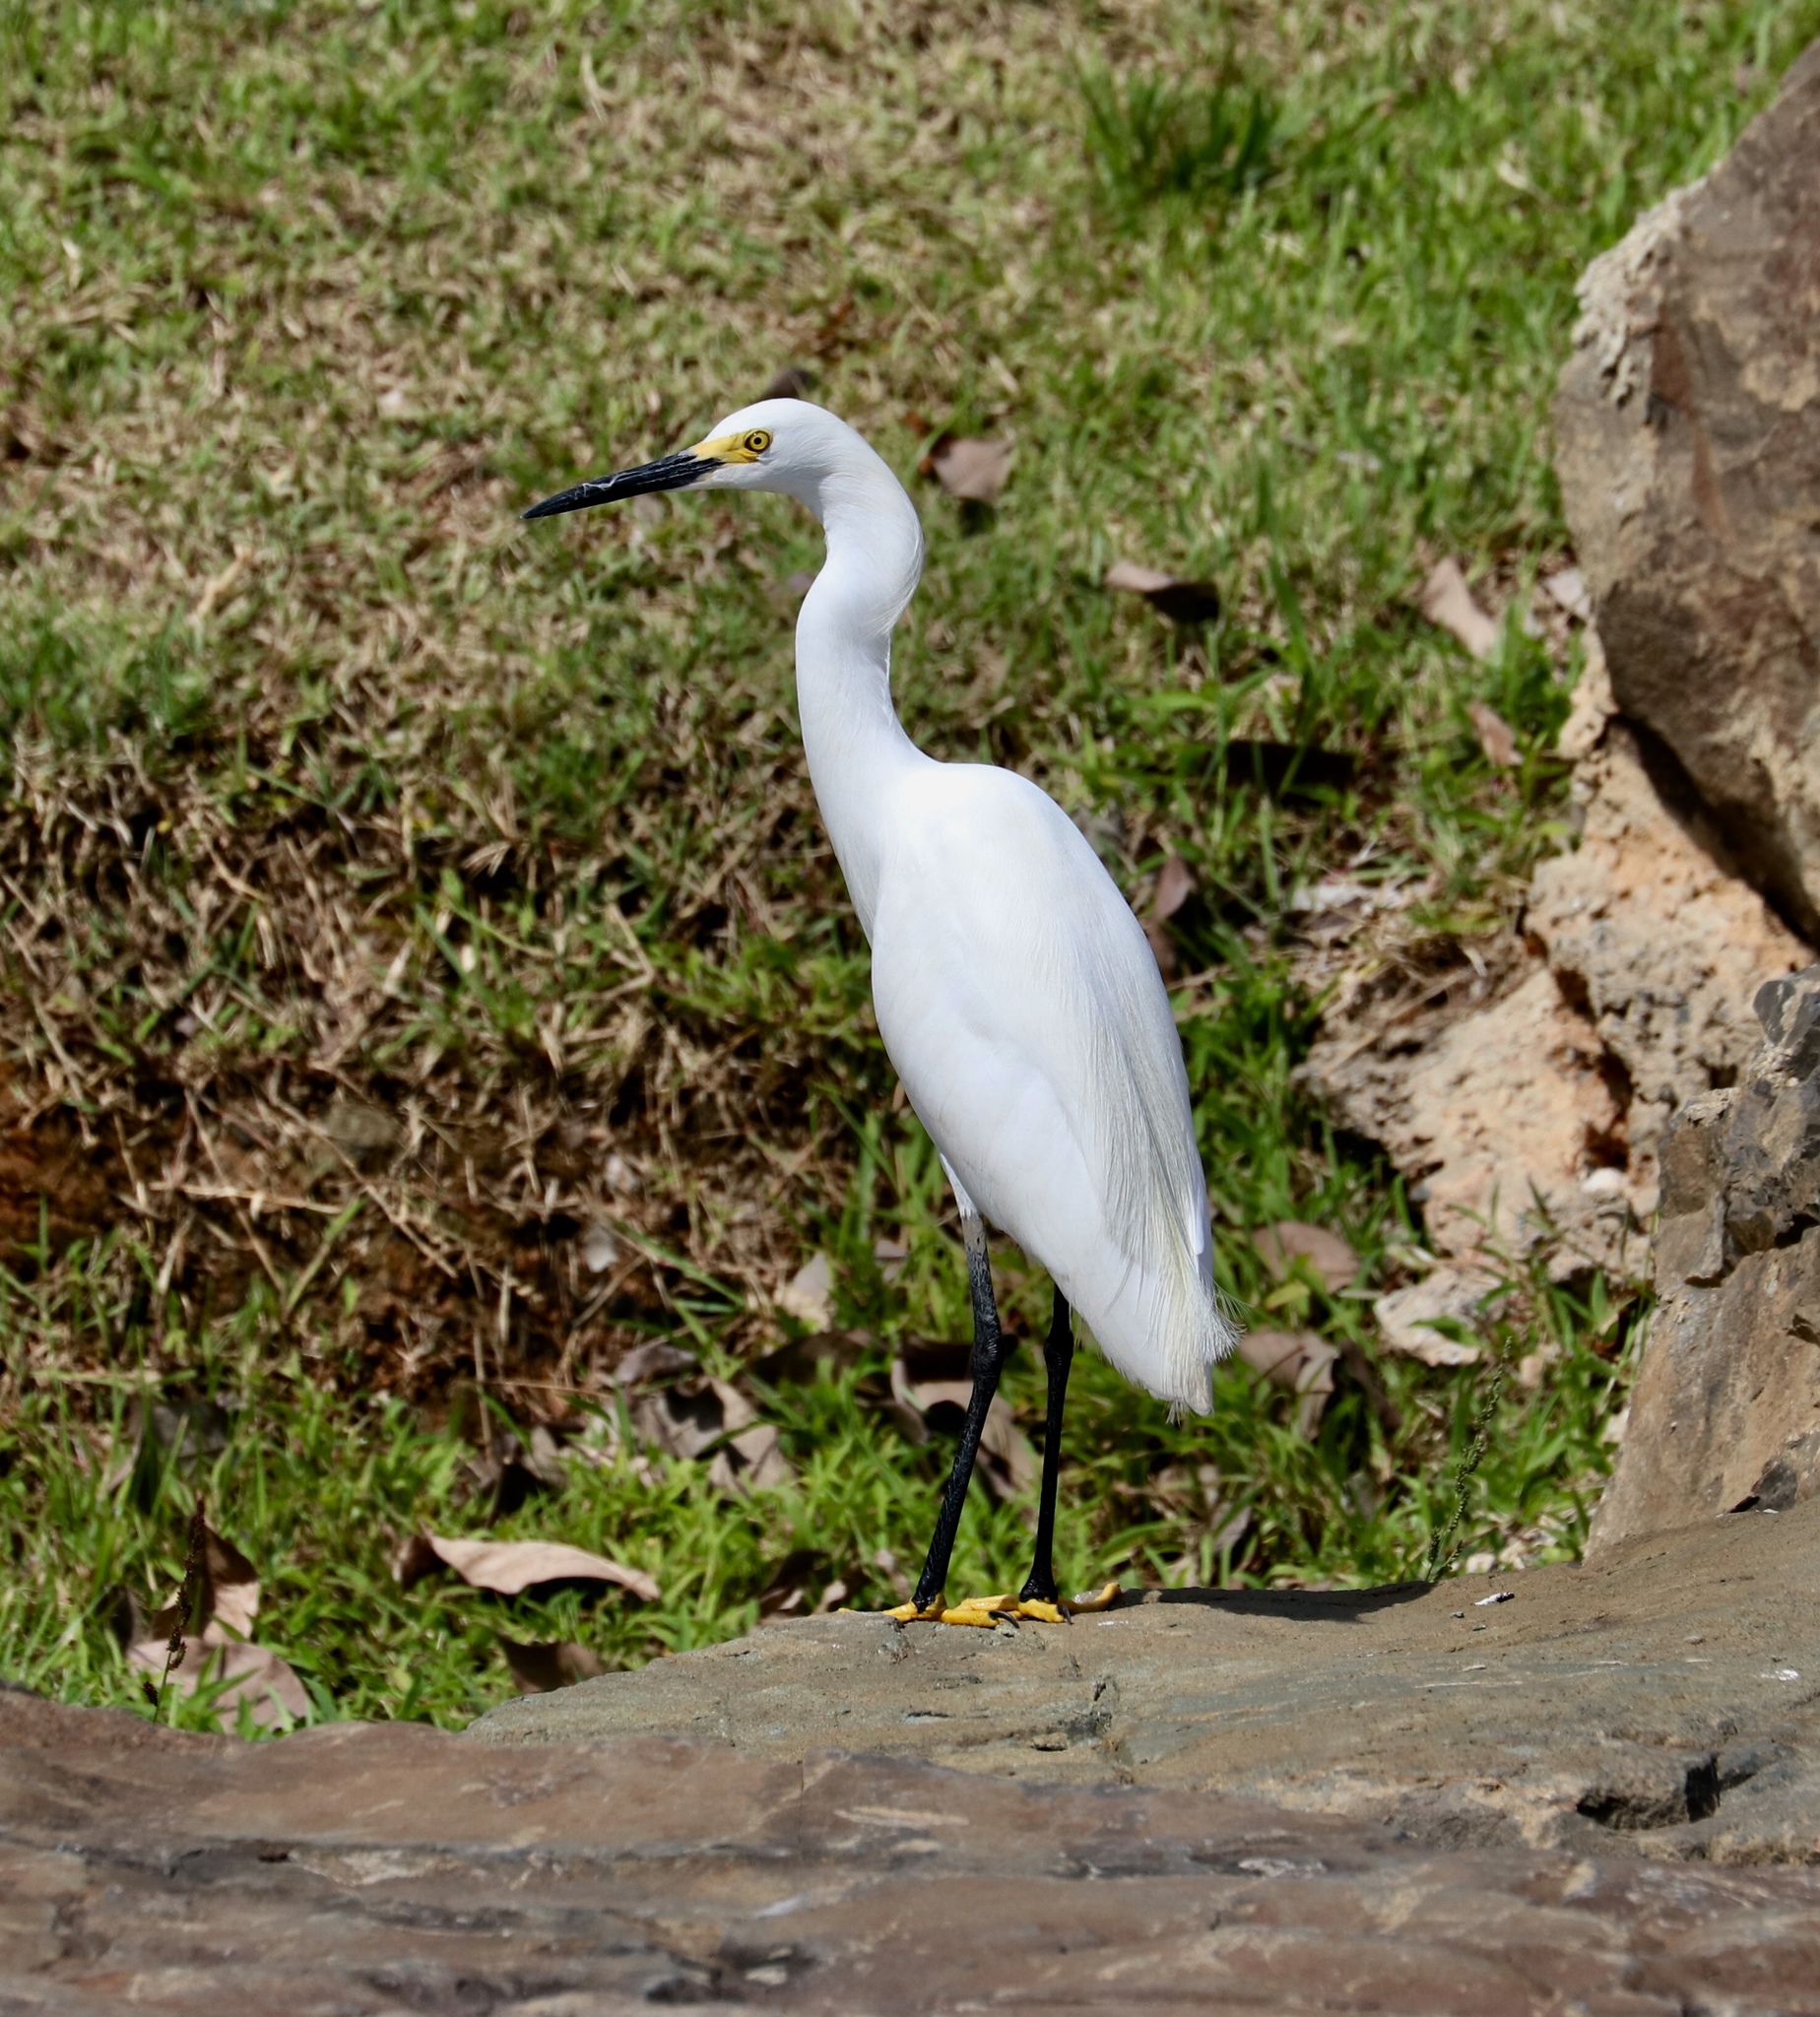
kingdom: Animalia
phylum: Chordata
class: Aves
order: Pelecaniformes
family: Ardeidae
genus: Egretta
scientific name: Egretta thula
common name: Snowy egret
